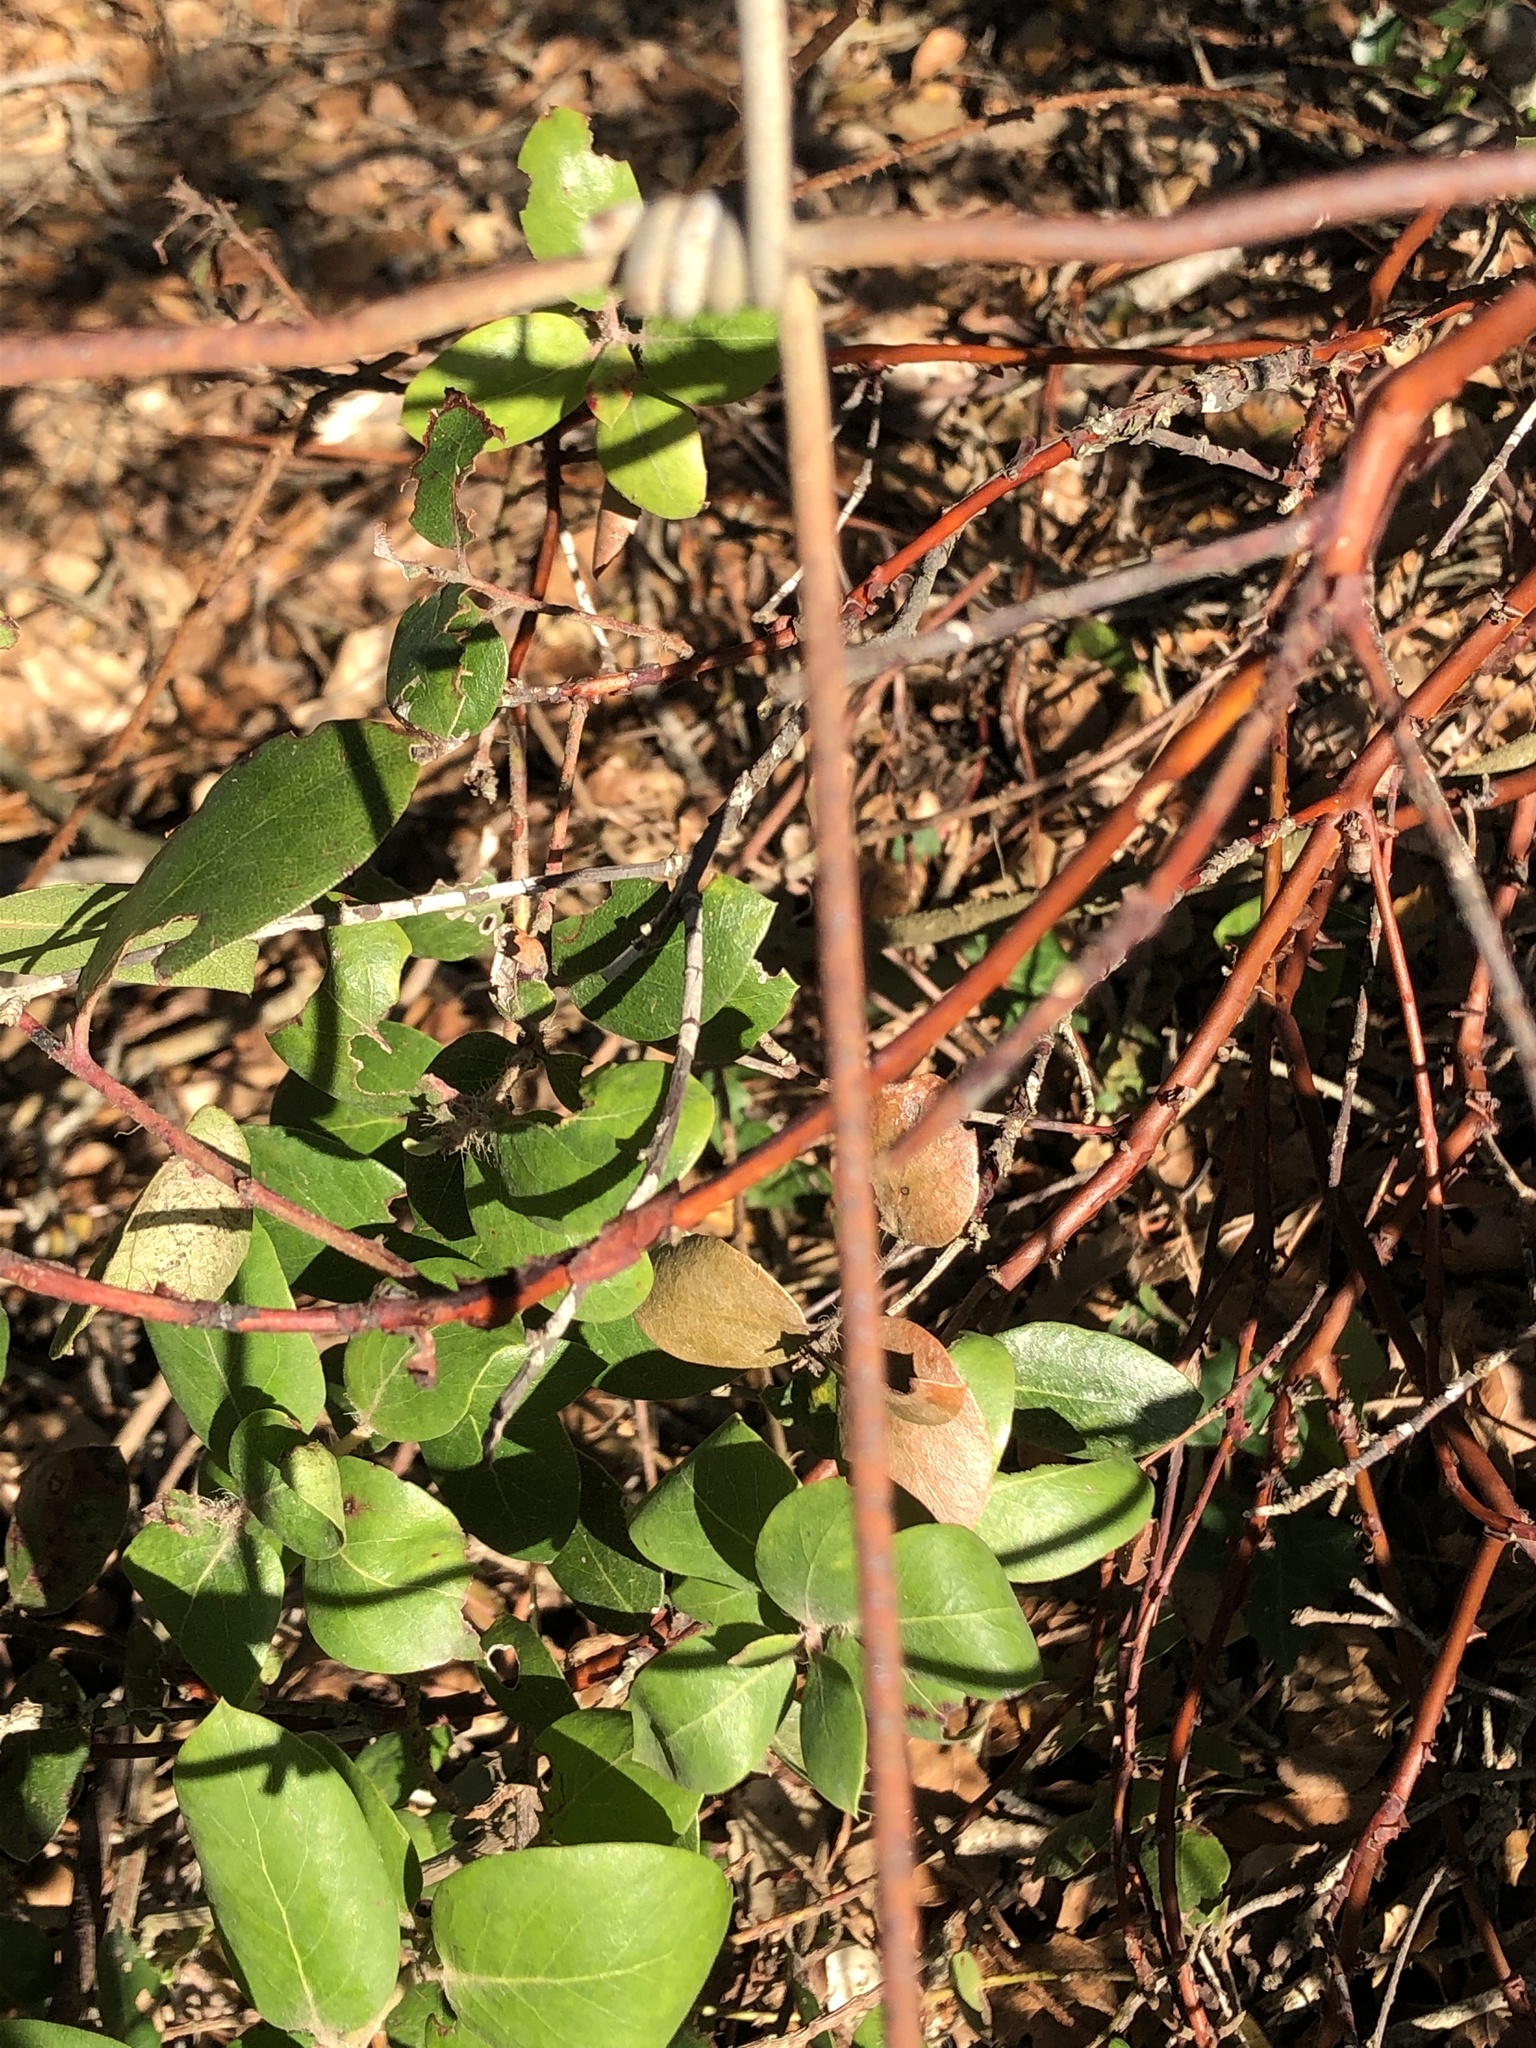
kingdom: Plantae
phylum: Tracheophyta
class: Magnoliopsida
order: Ericales
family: Ericaceae
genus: Arctostaphylos
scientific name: Arctostaphylos crustacea
